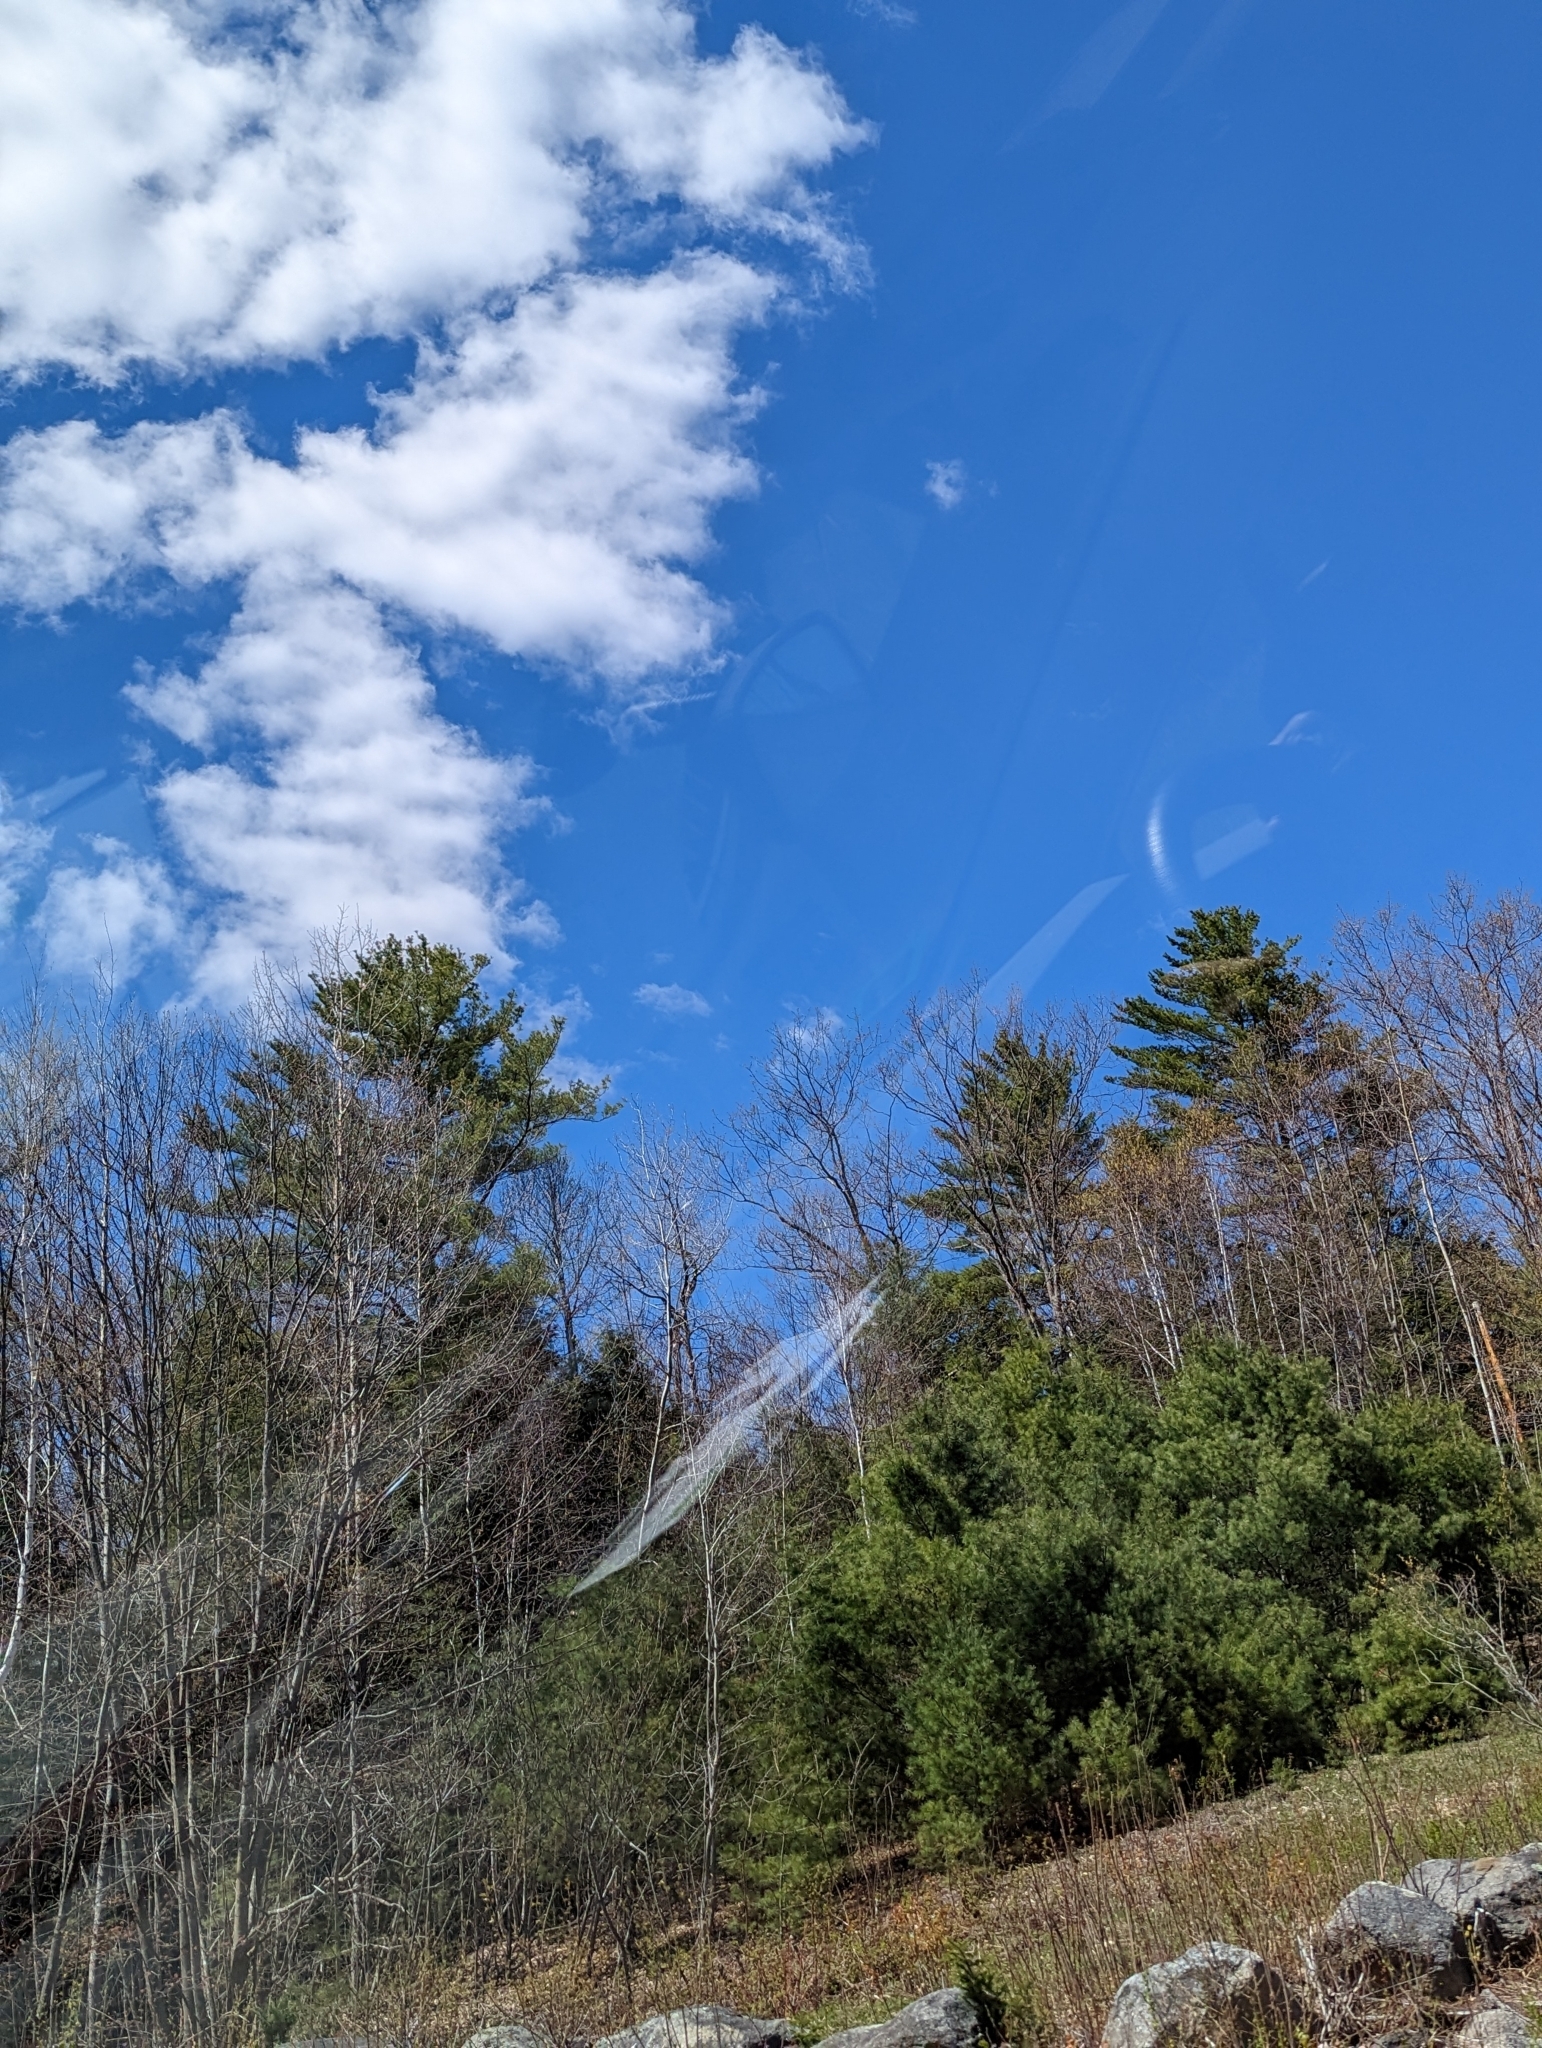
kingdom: Plantae
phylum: Tracheophyta
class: Pinopsida
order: Pinales
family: Pinaceae
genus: Pinus
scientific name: Pinus strobus
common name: Weymouth pine
